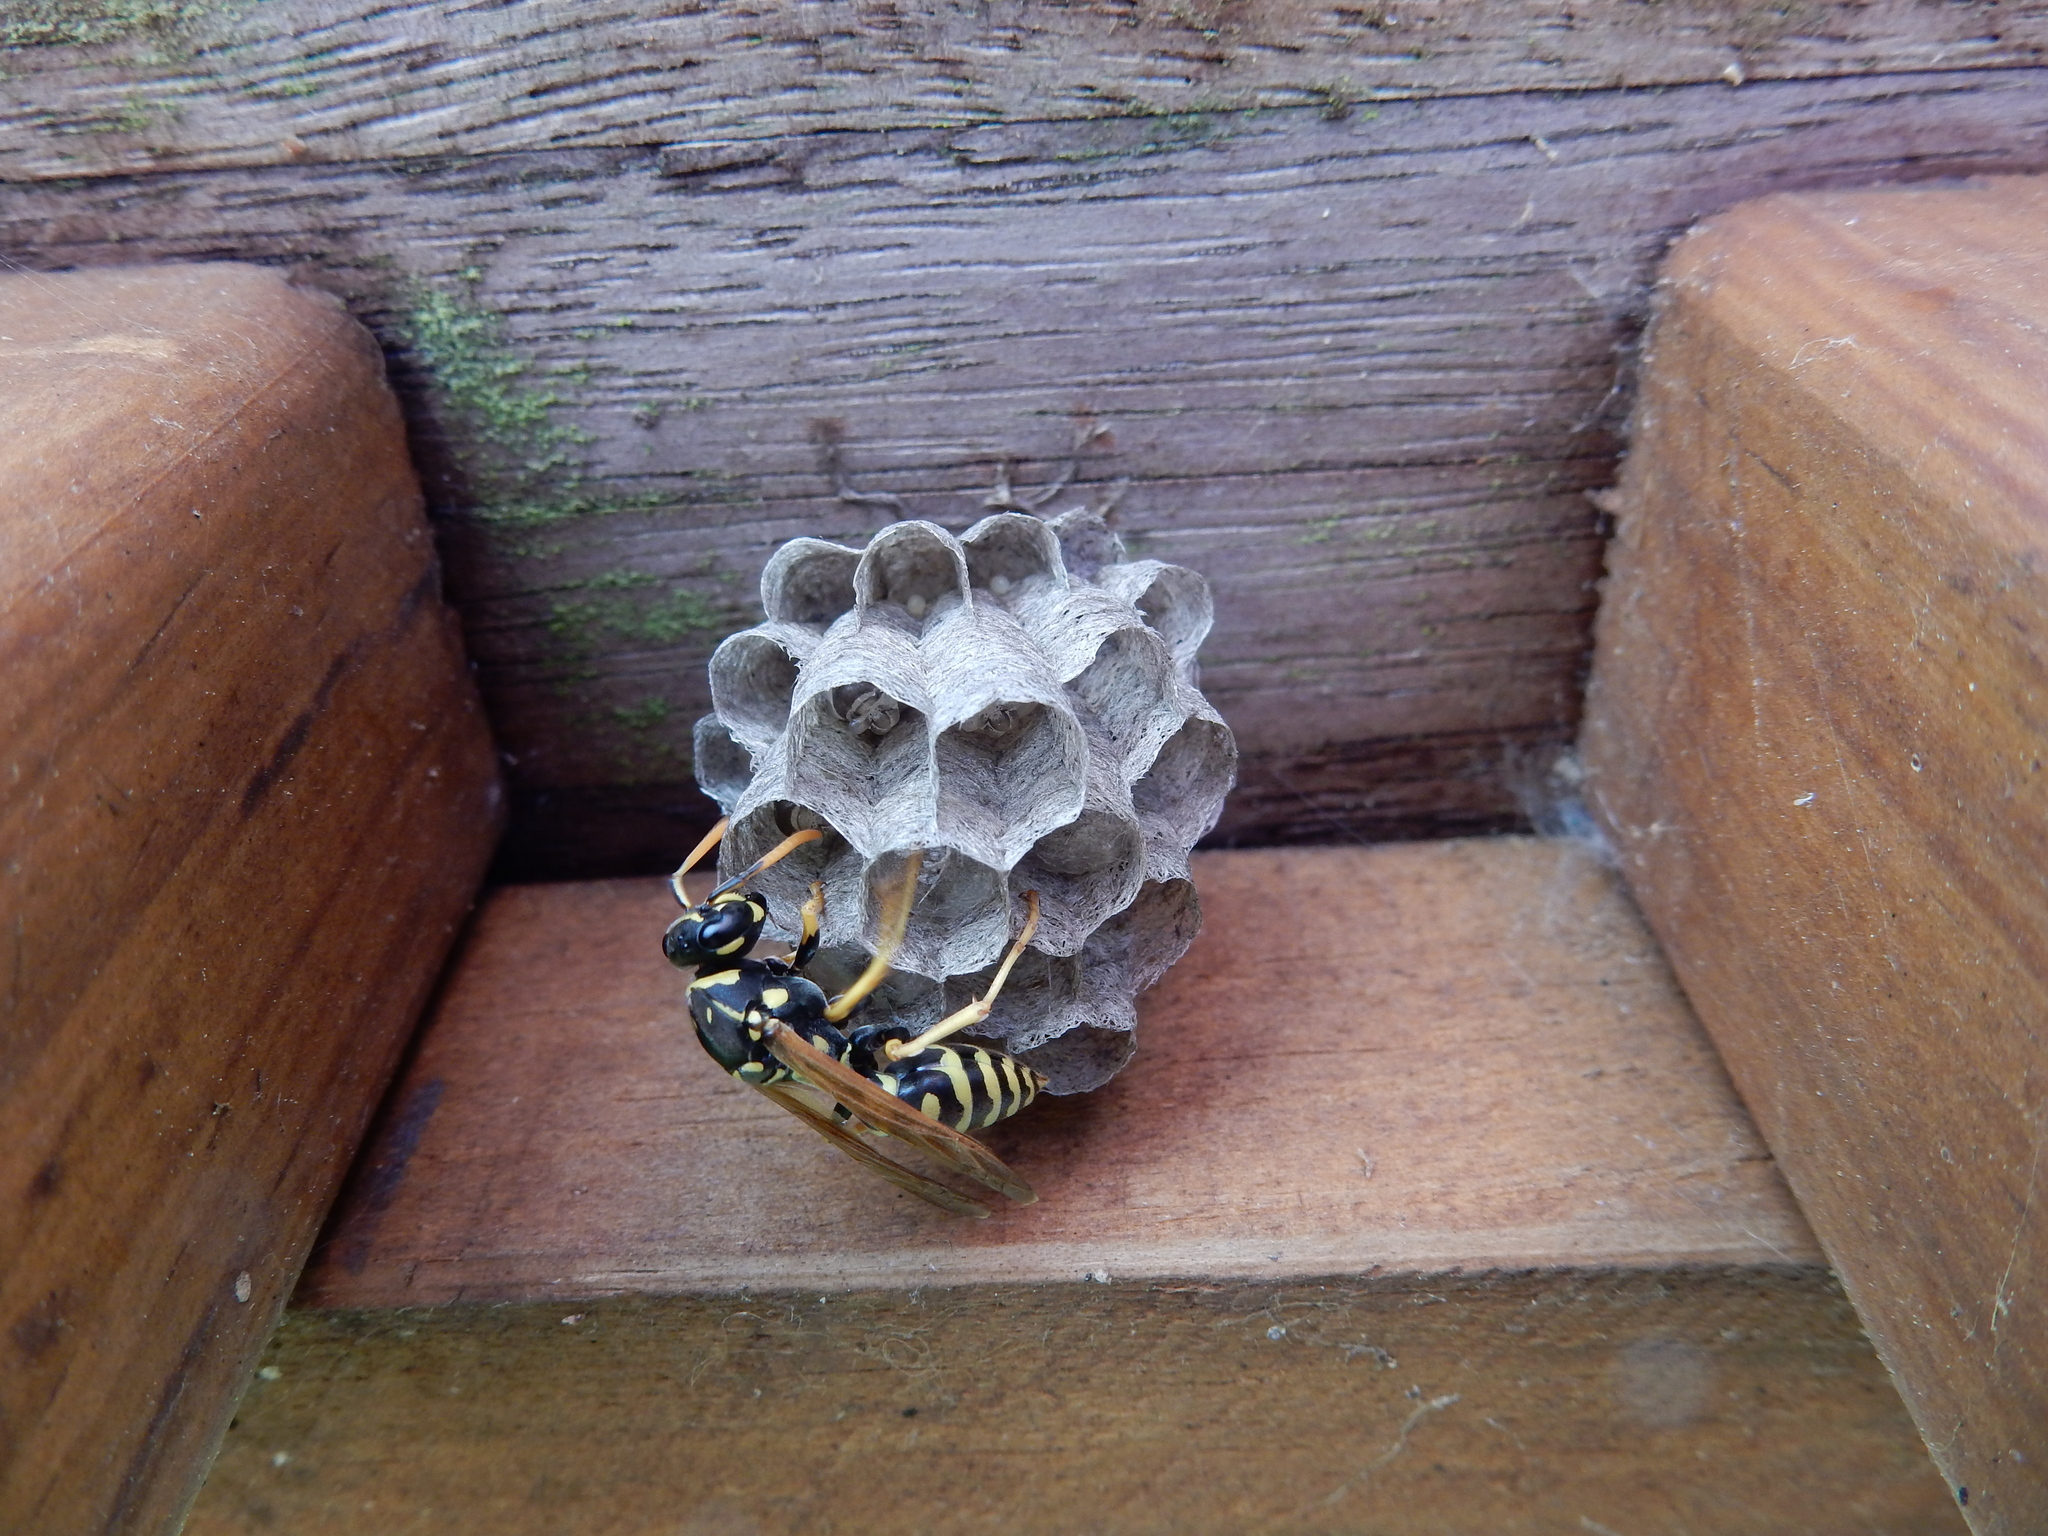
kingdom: Animalia
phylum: Arthropoda
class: Insecta
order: Hymenoptera
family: Eumenidae
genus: Polistes
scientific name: Polistes dominula
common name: Paper wasp
